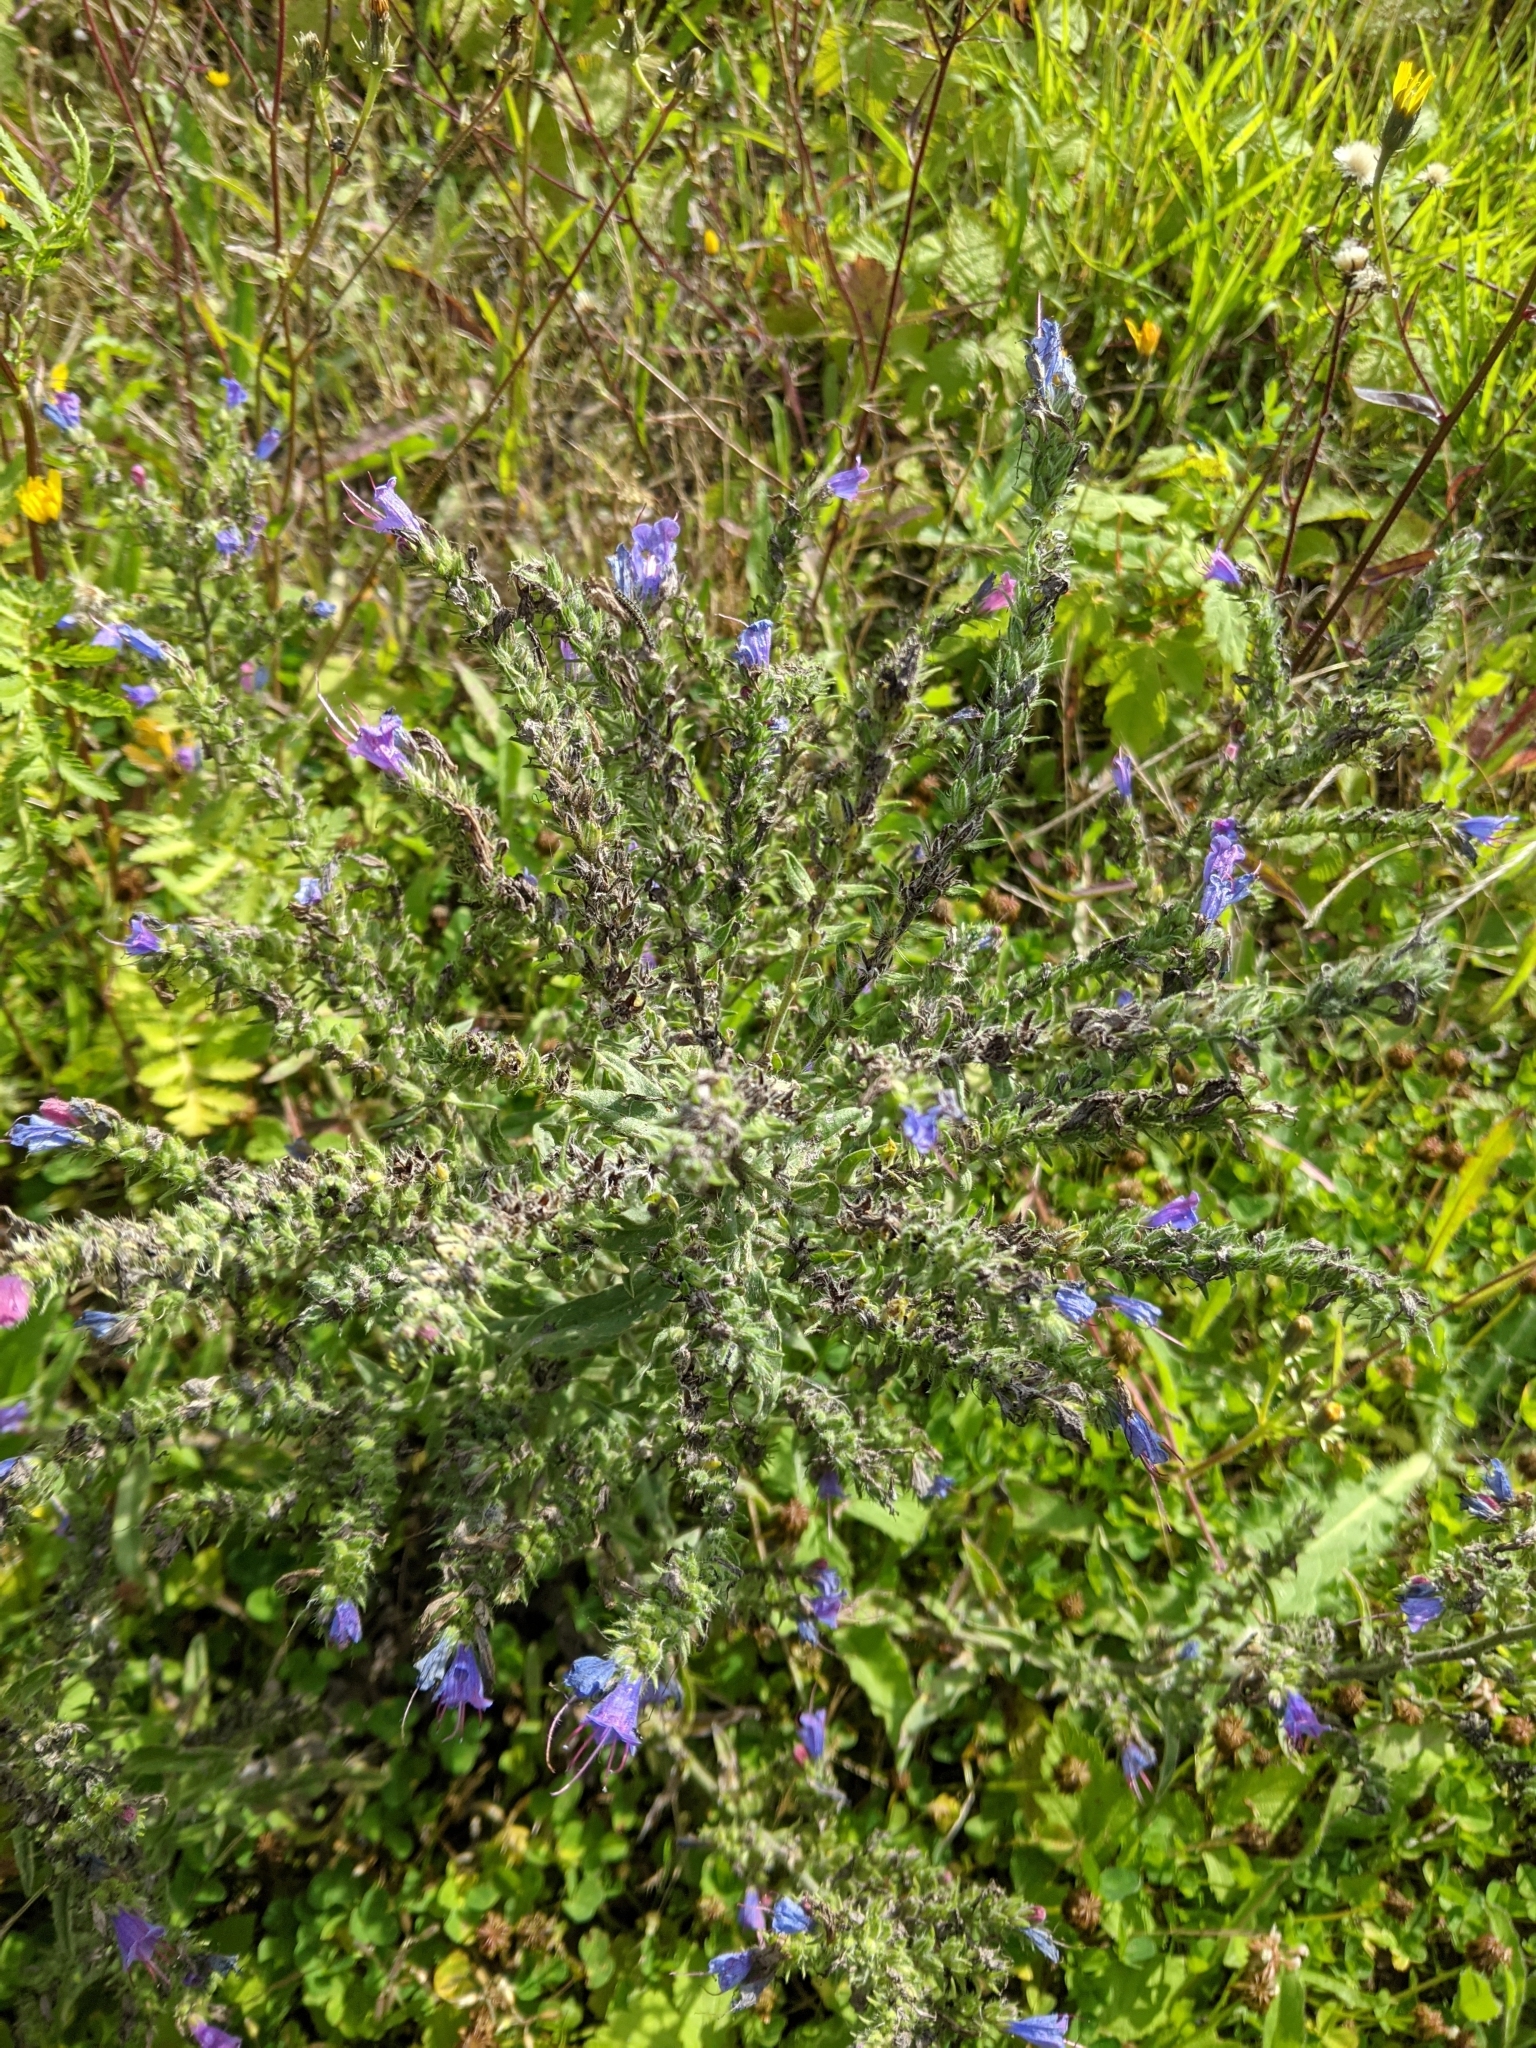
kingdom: Plantae
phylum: Tracheophyta
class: Magnoliopsida
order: Boraginales
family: Boraginaceae
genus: Echium
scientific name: Echium vulgare
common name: Common viper's bugloss
